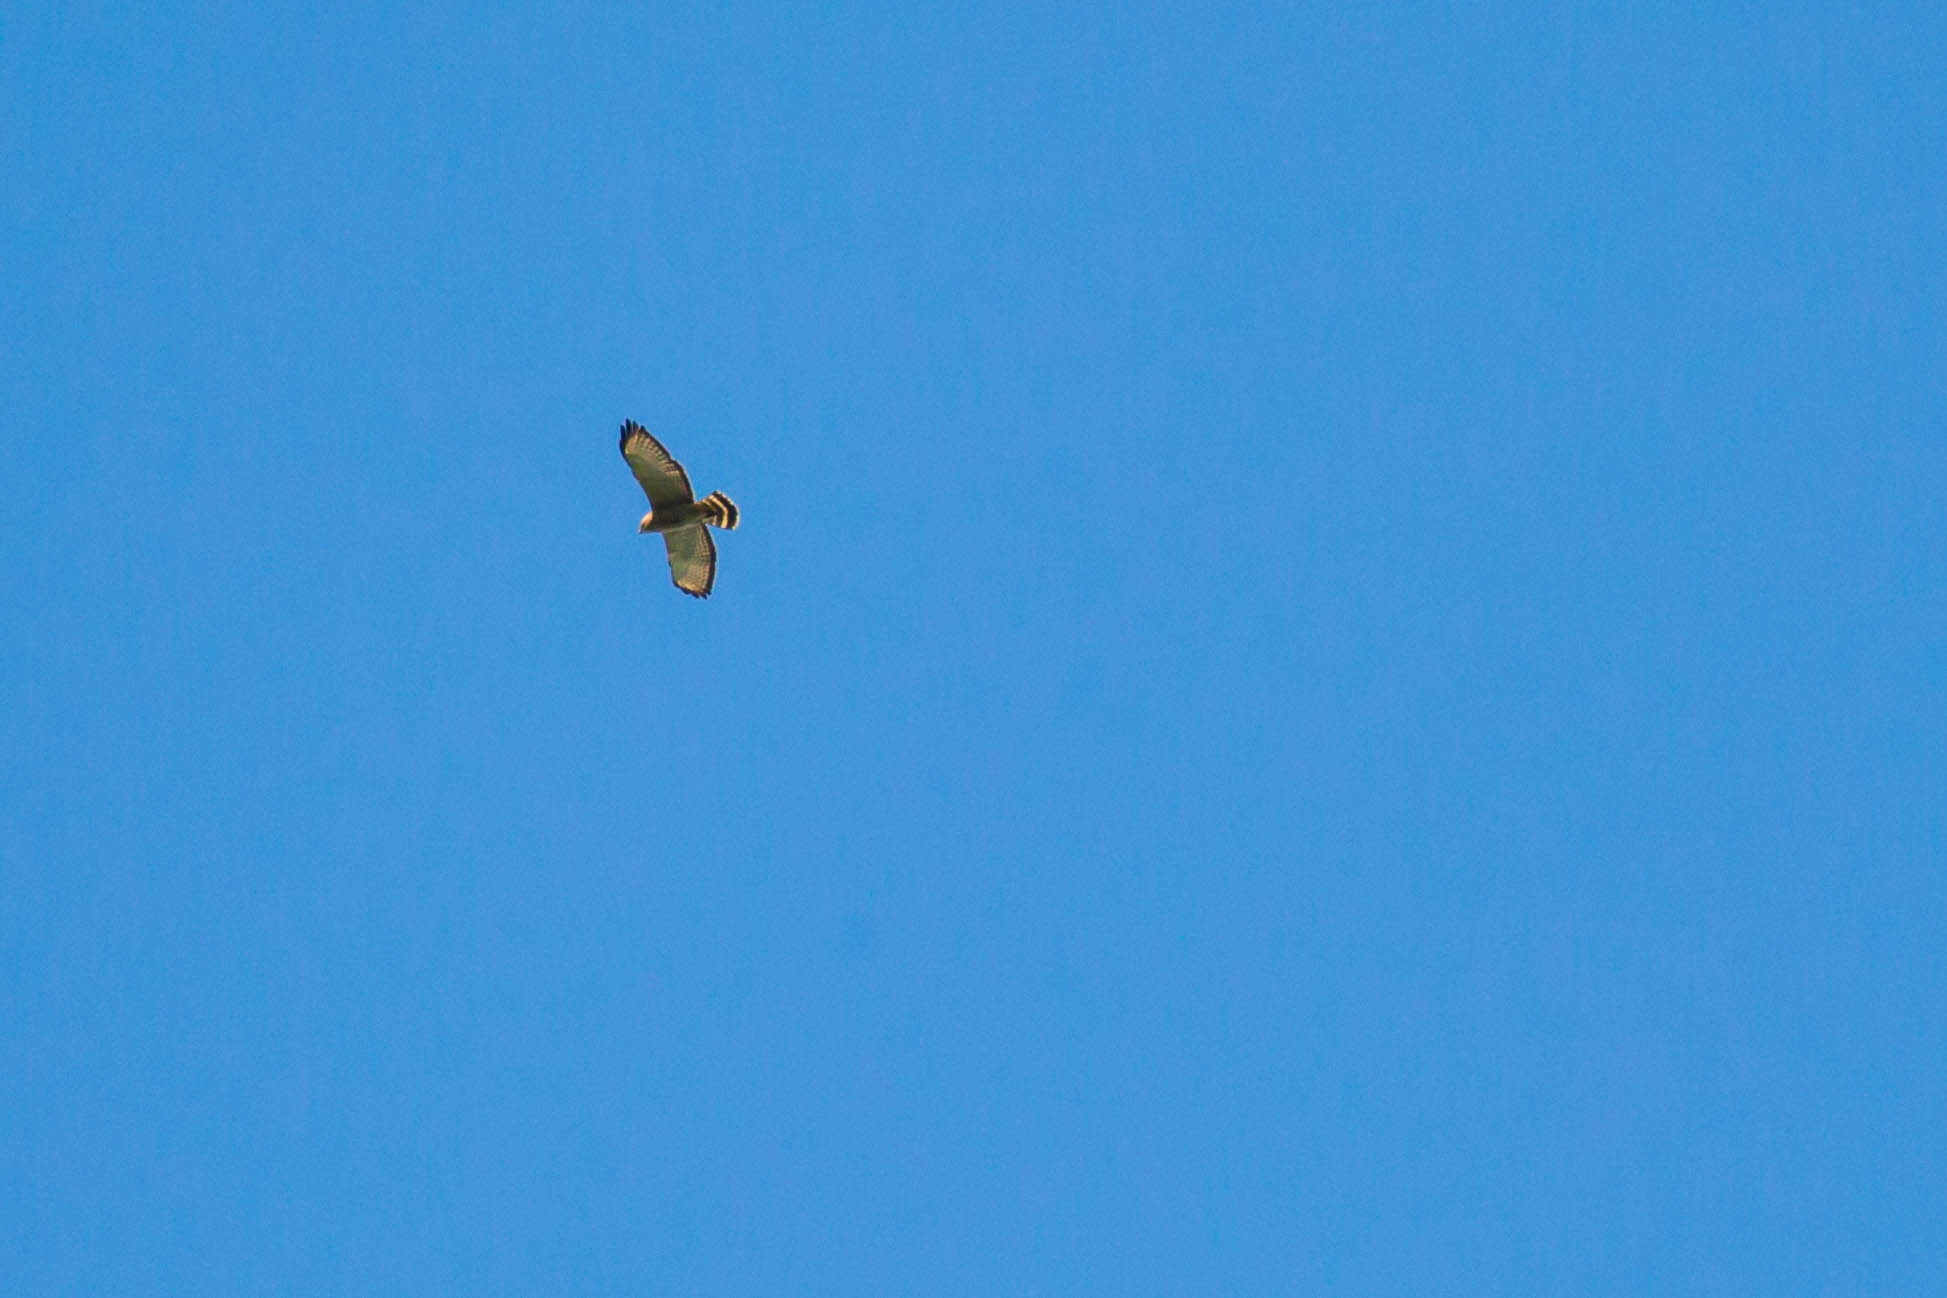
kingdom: Animalia
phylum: Chordata
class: Aves
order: Accipitriformes
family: Accipitridae
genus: Buteo
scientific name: Buteo platypterus
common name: Broad-winged hawk
